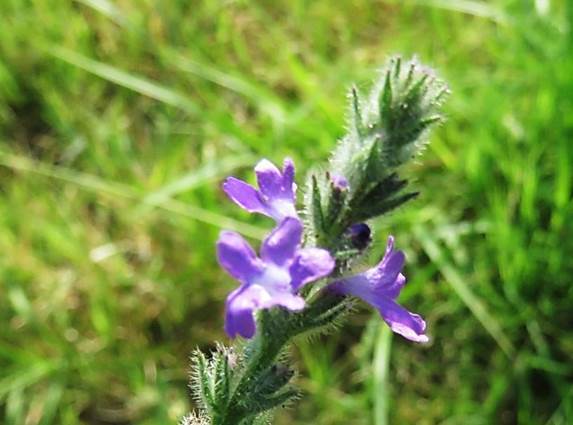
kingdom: Plantae
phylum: Tracheophyta
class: Magnoliopsida
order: Lamiales
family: Verbenaceae
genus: Verbena
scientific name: Verbena canescens
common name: Gray vervain
